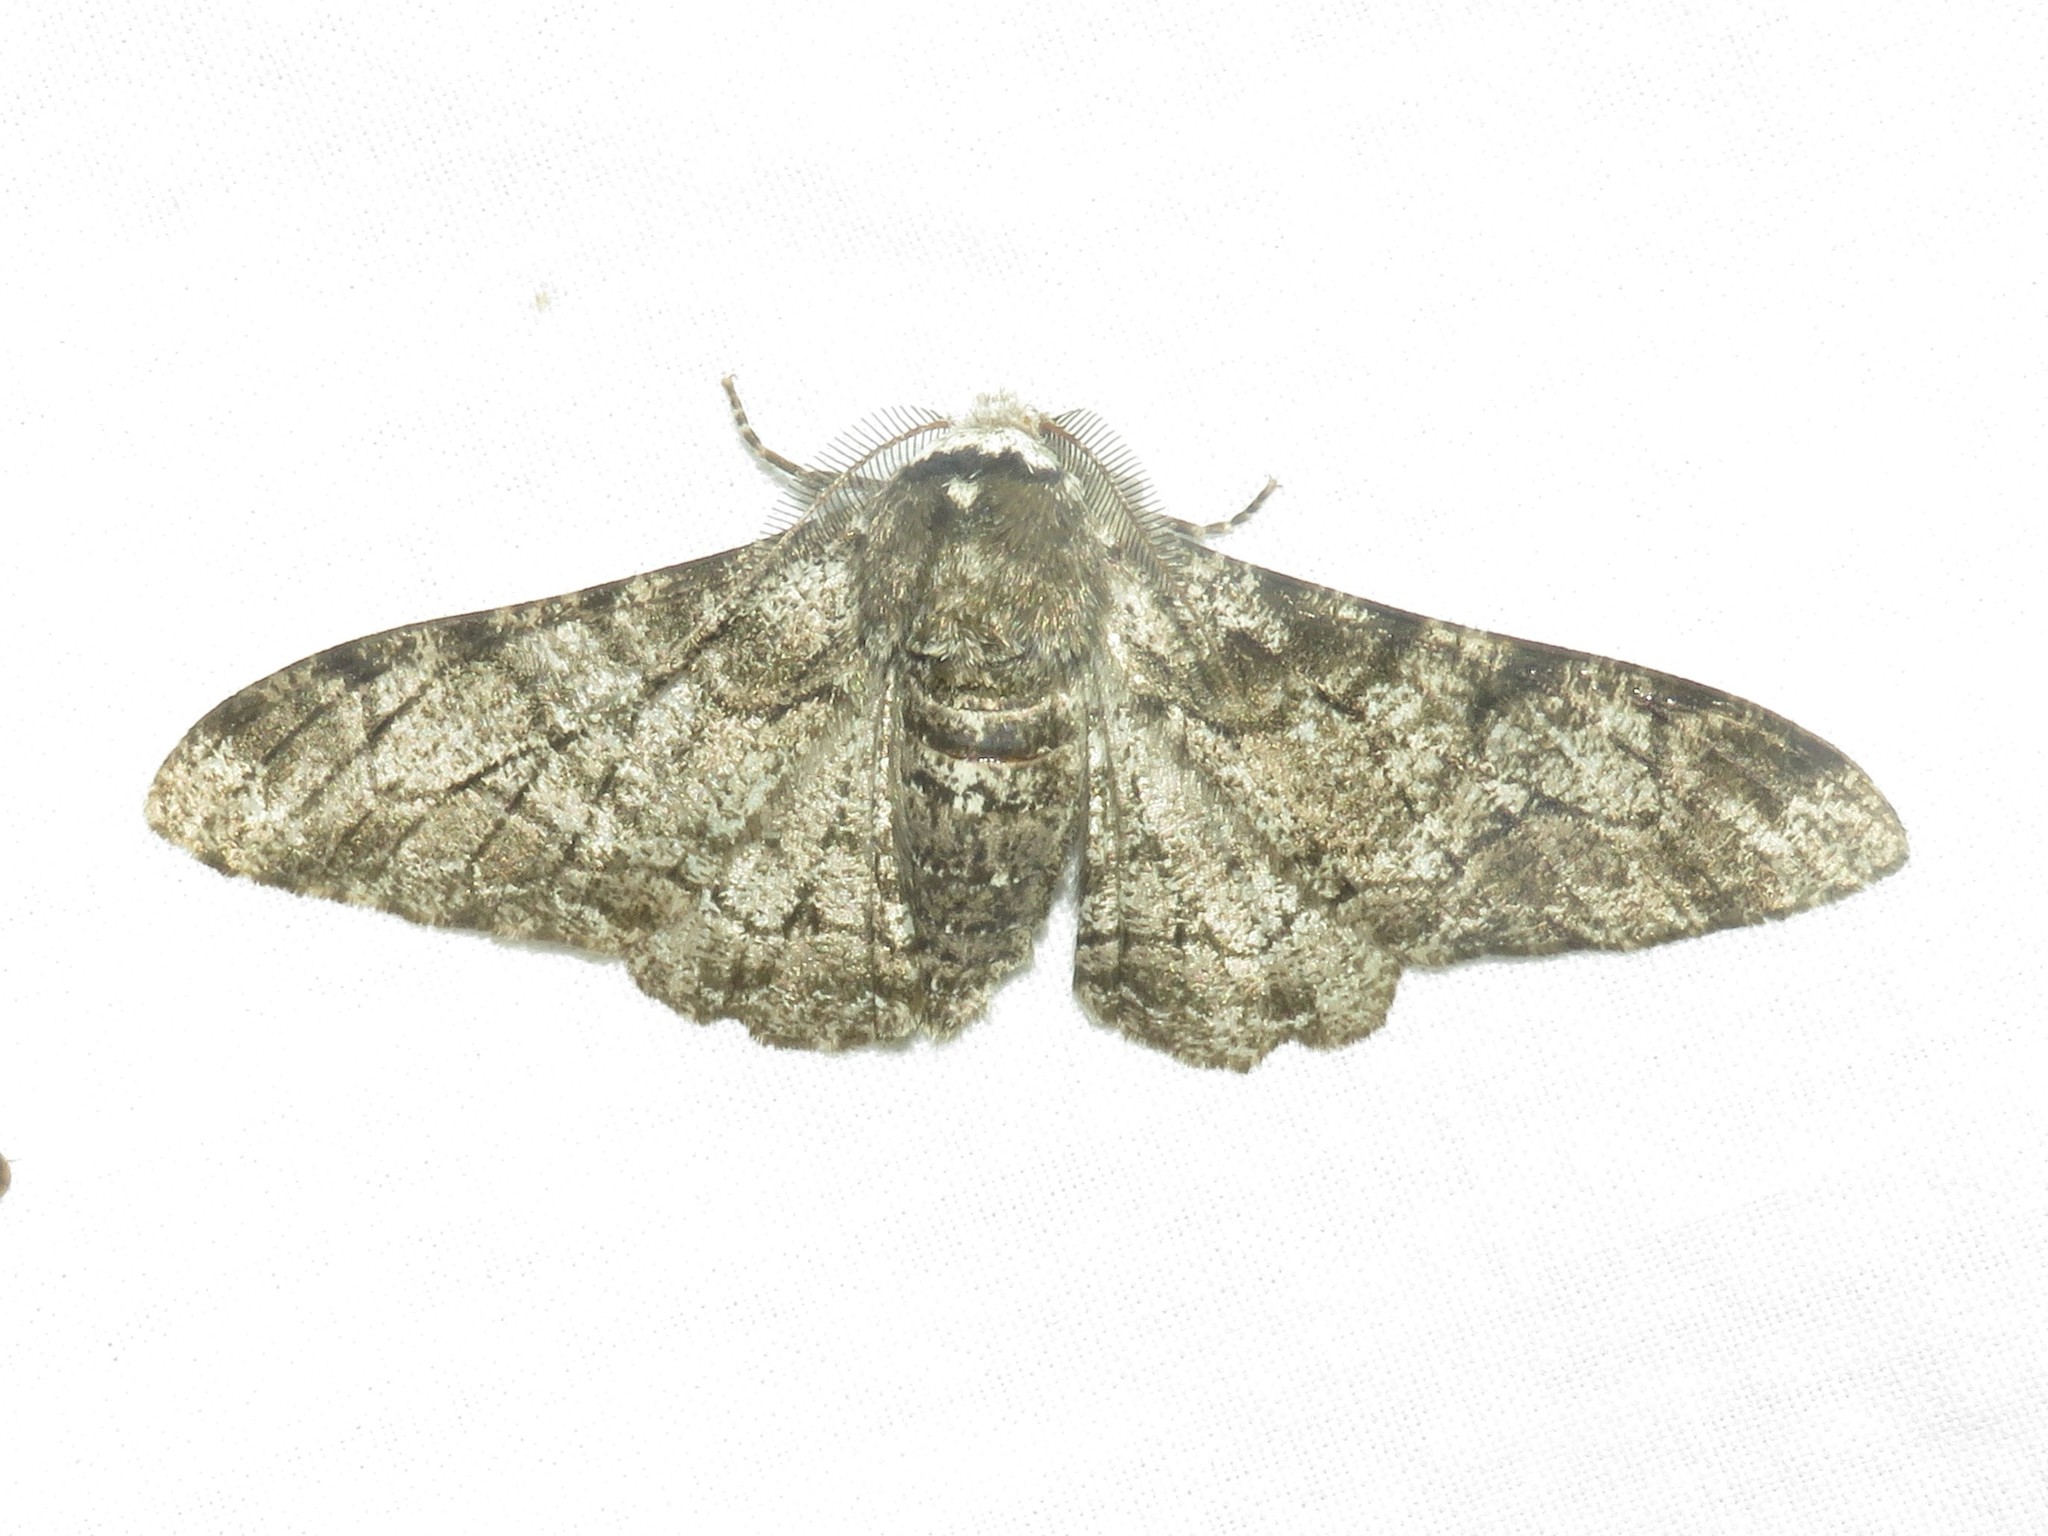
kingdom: Animalia
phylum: Arthropoda
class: Insecta
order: Lepidoptera
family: Geometridae
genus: Biston
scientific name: Biston betularia
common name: Peppered moth
